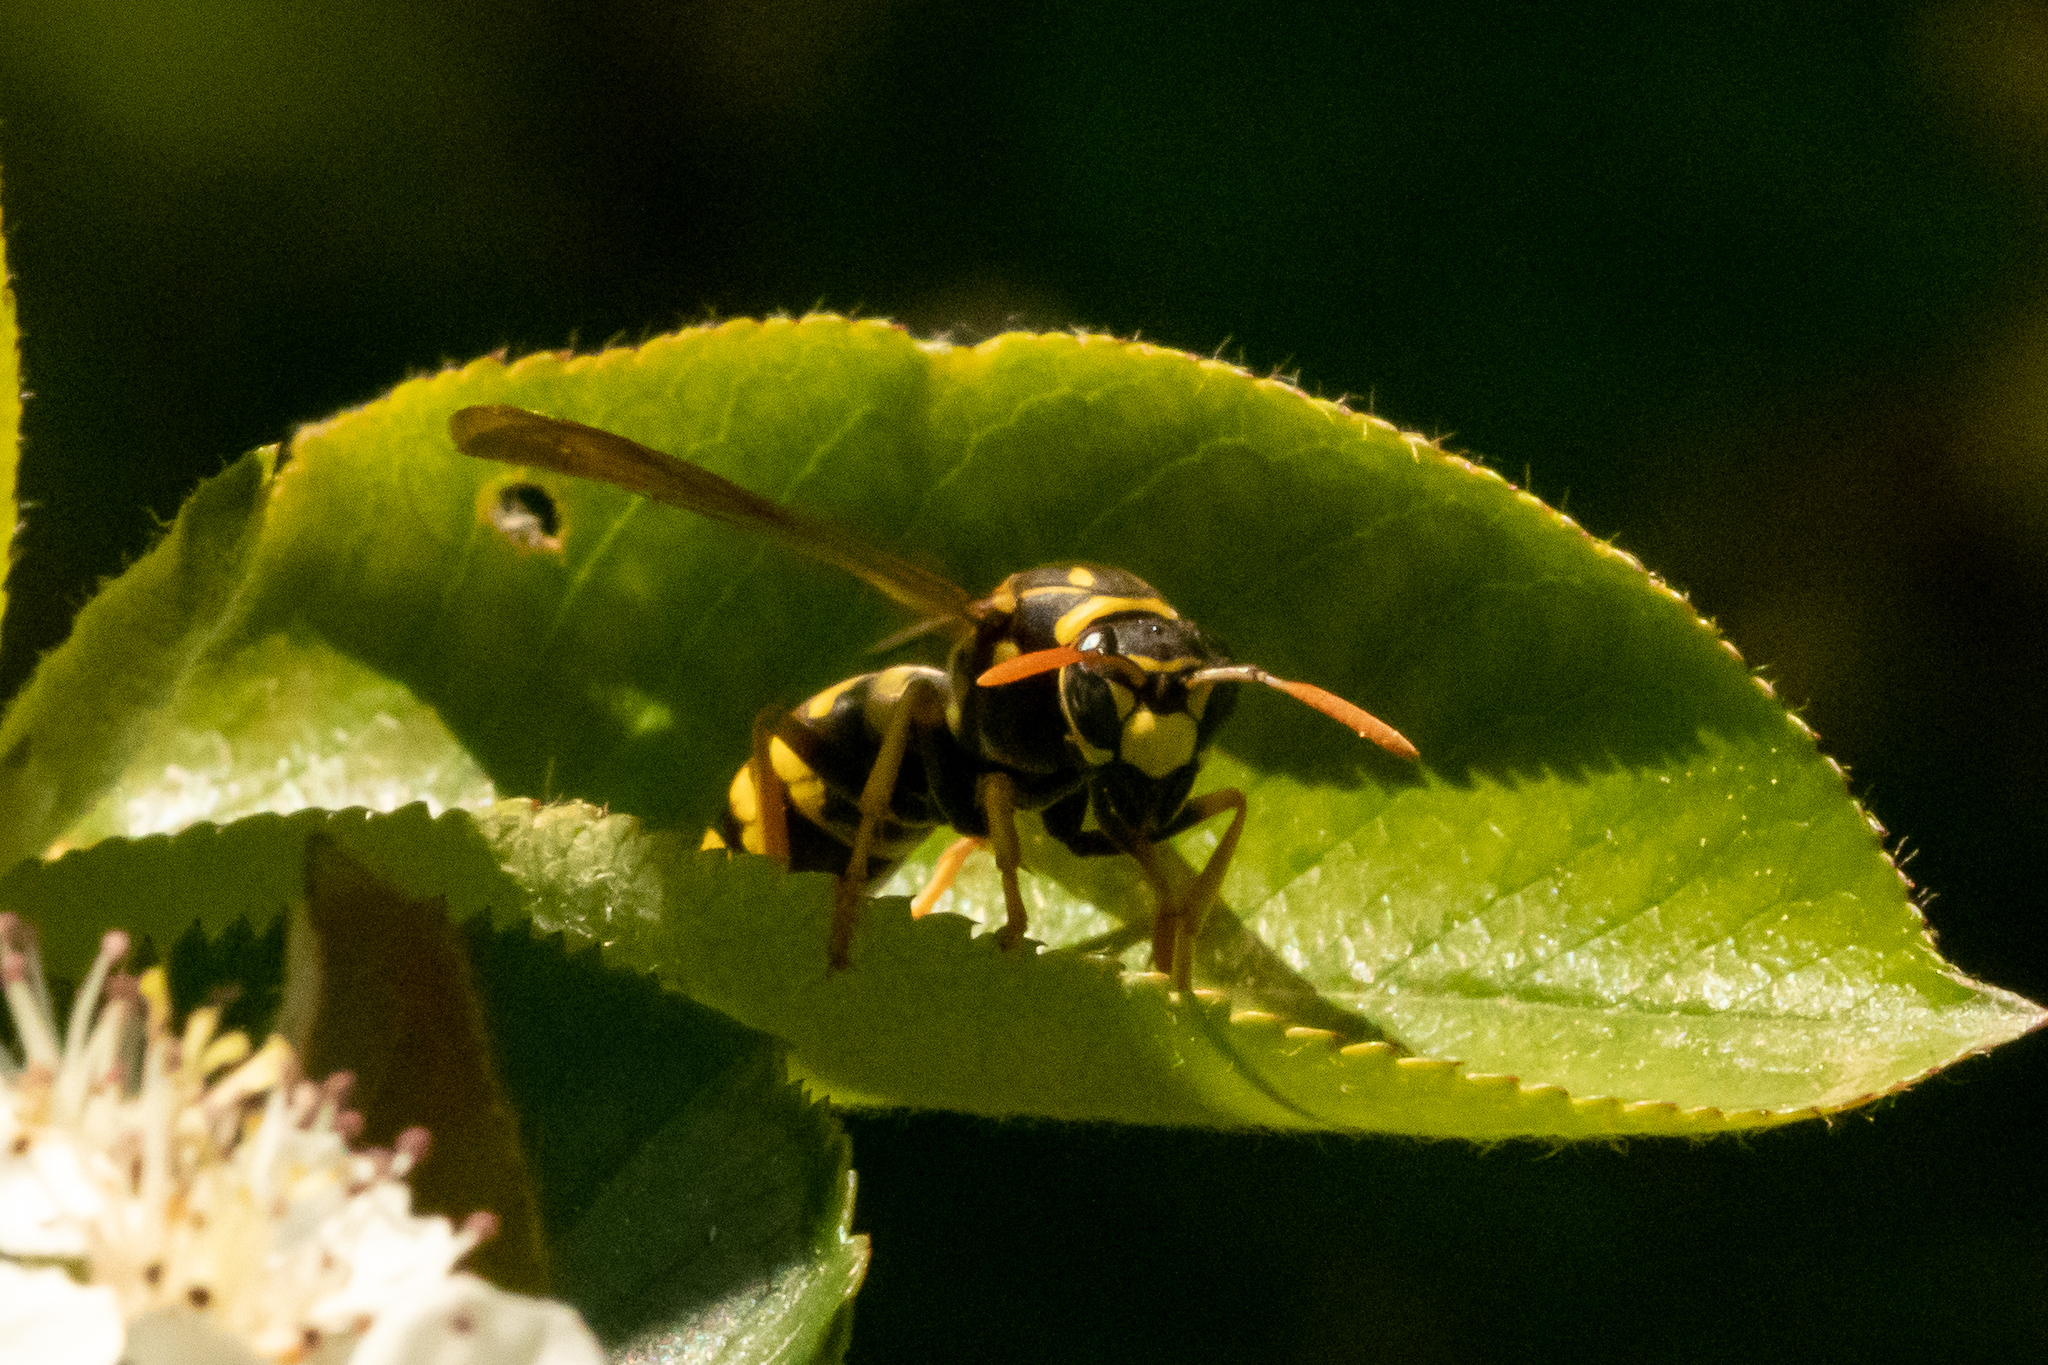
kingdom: Animalia
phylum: Arthropoda
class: Insecta
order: Hymenoptera
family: Eumenidae
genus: Polistes
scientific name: Polistes dominula
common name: Paper wasp
